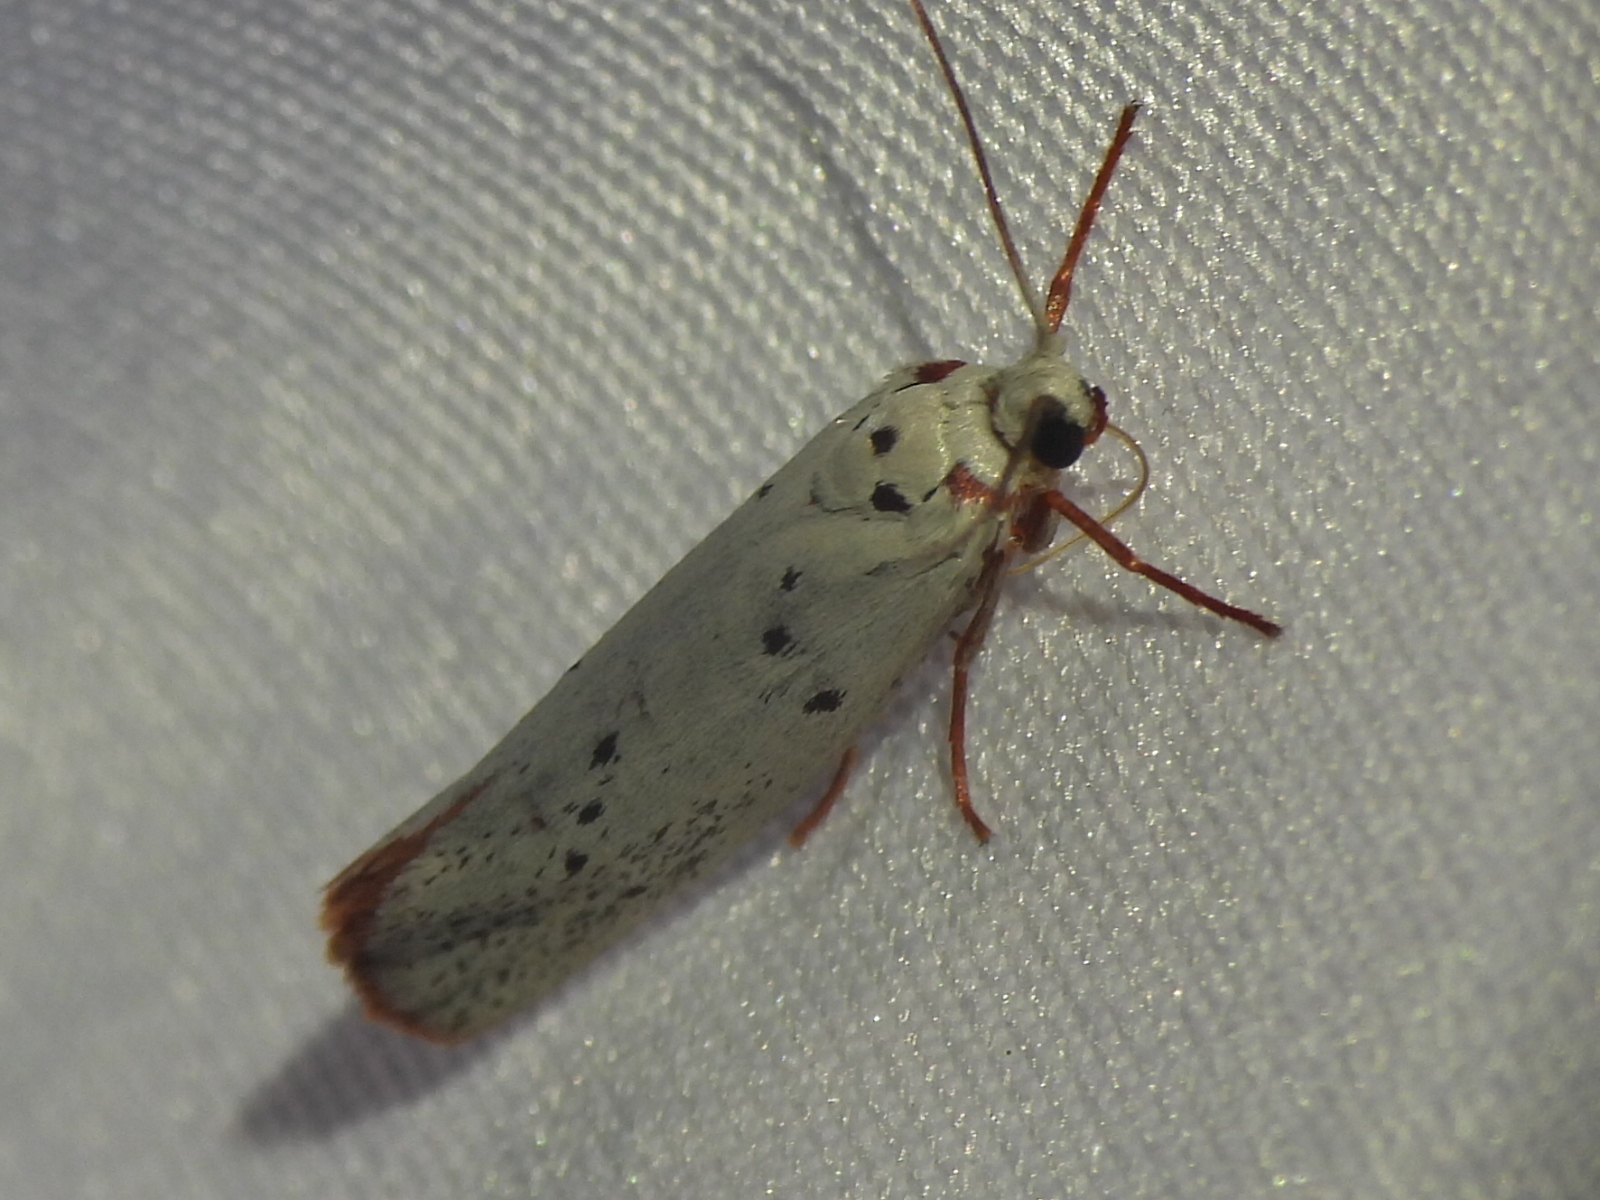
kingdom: Animalia
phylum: Arthropoda
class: Insecta
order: Lepidoptera
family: Lacturidae
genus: Lactura
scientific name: Lactura
